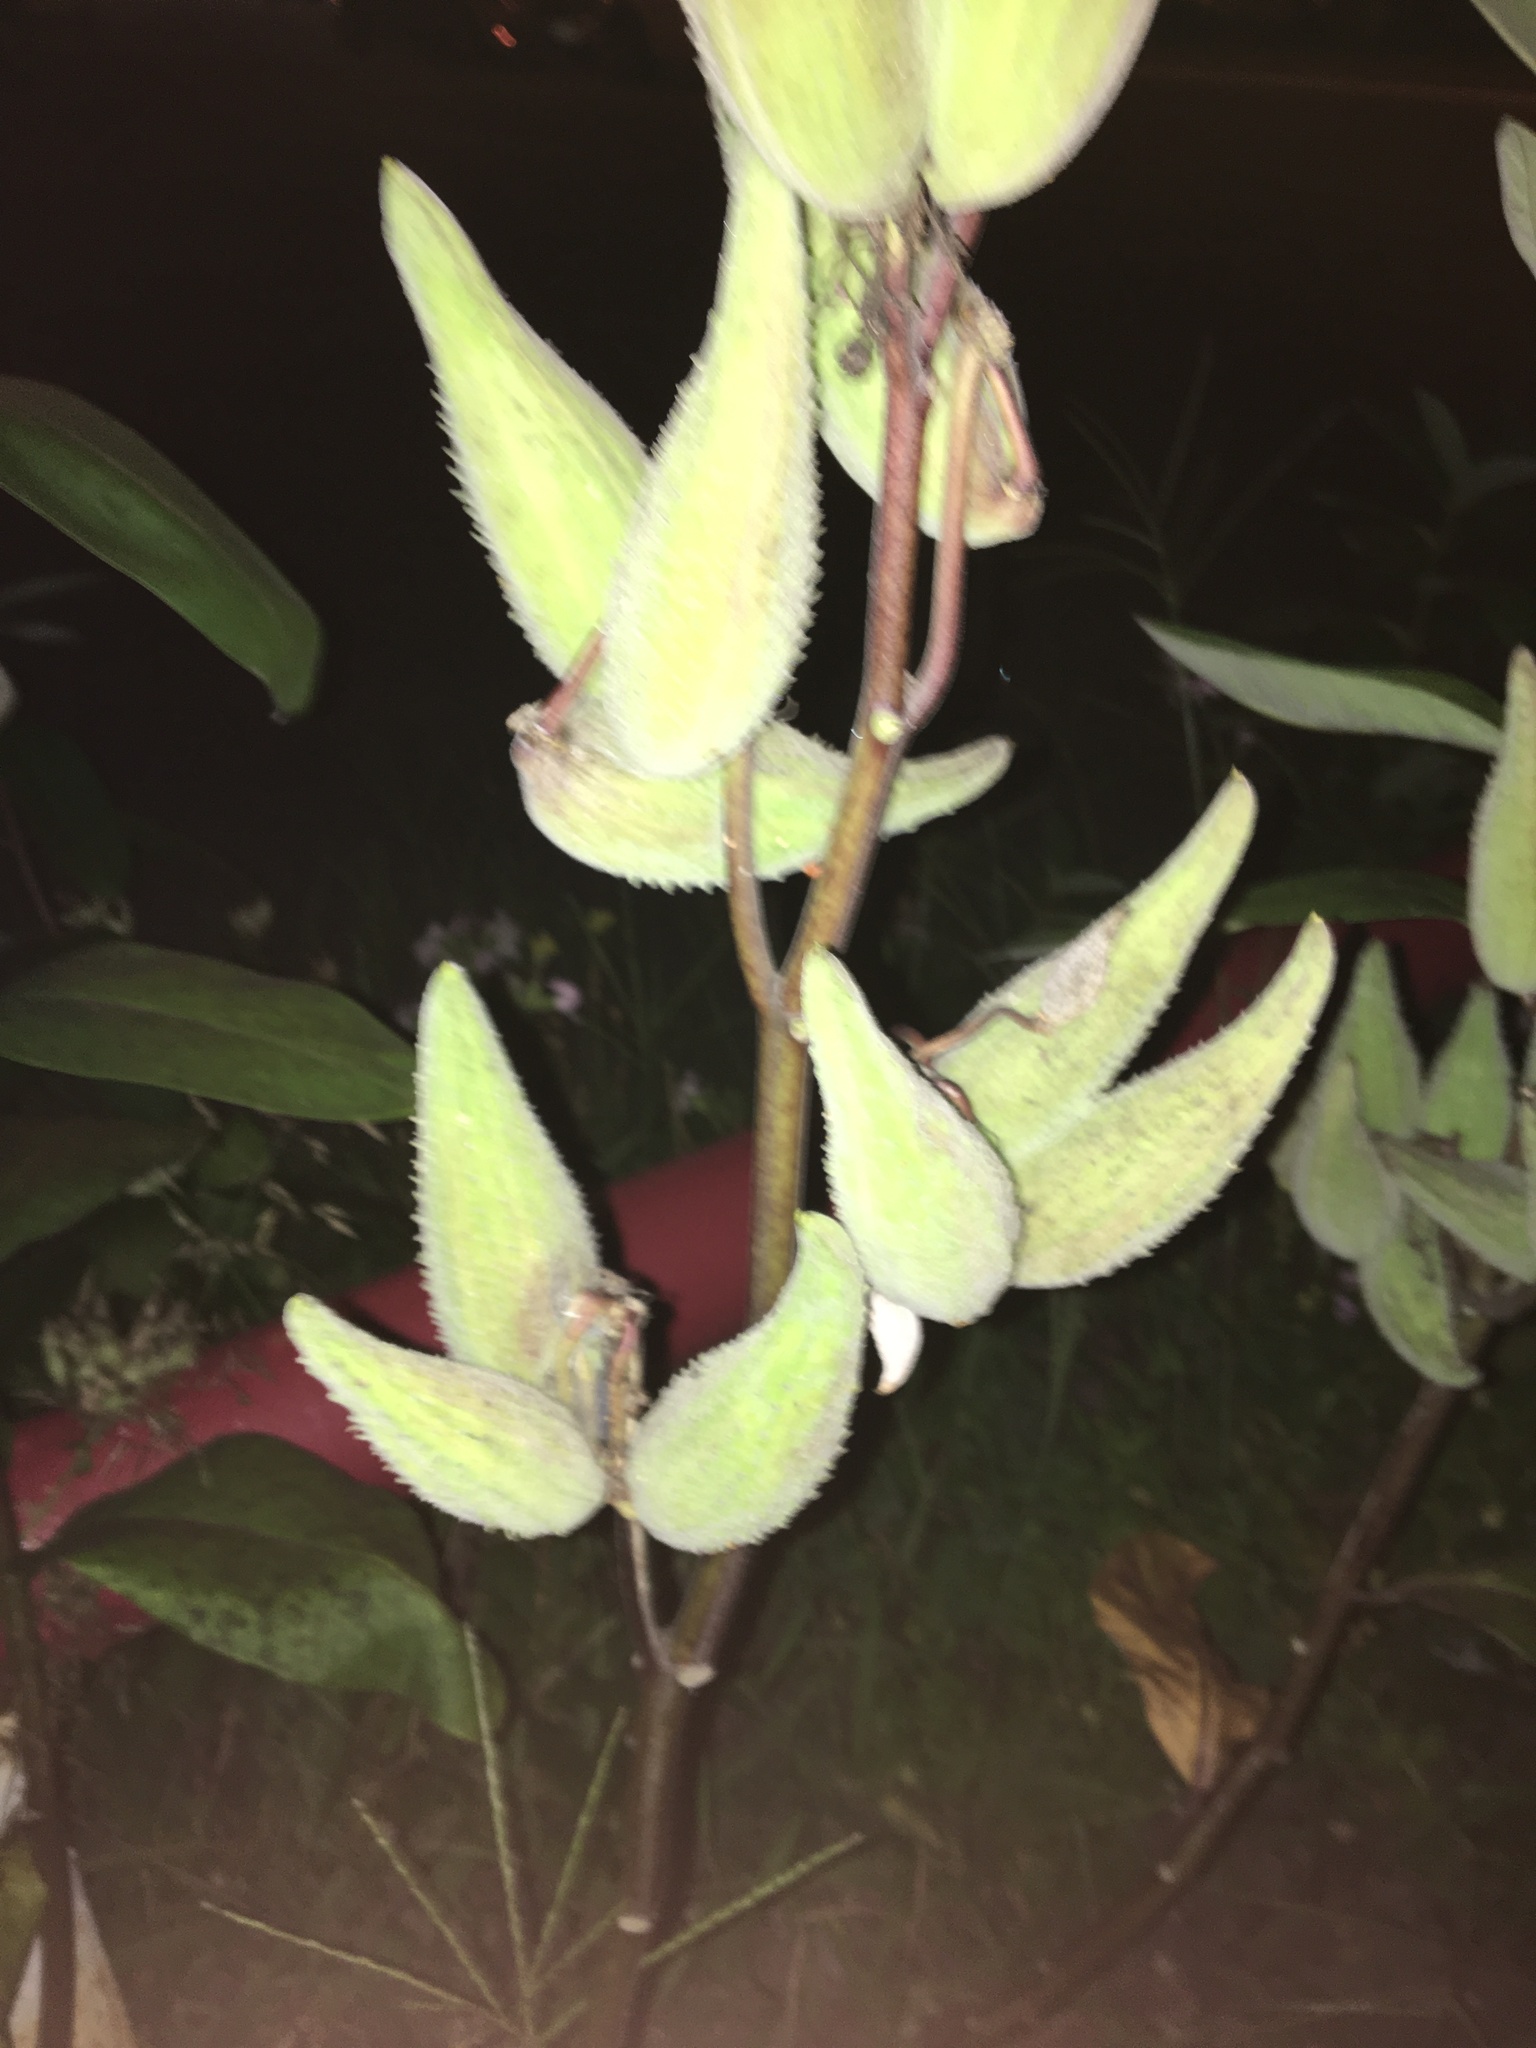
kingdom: Plantae
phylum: Tracheophyta
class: Magnoliopsida
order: Gentianales
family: Apocynaceae
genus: Asclepias
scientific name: Asclepias syriaca
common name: Common milkweed
